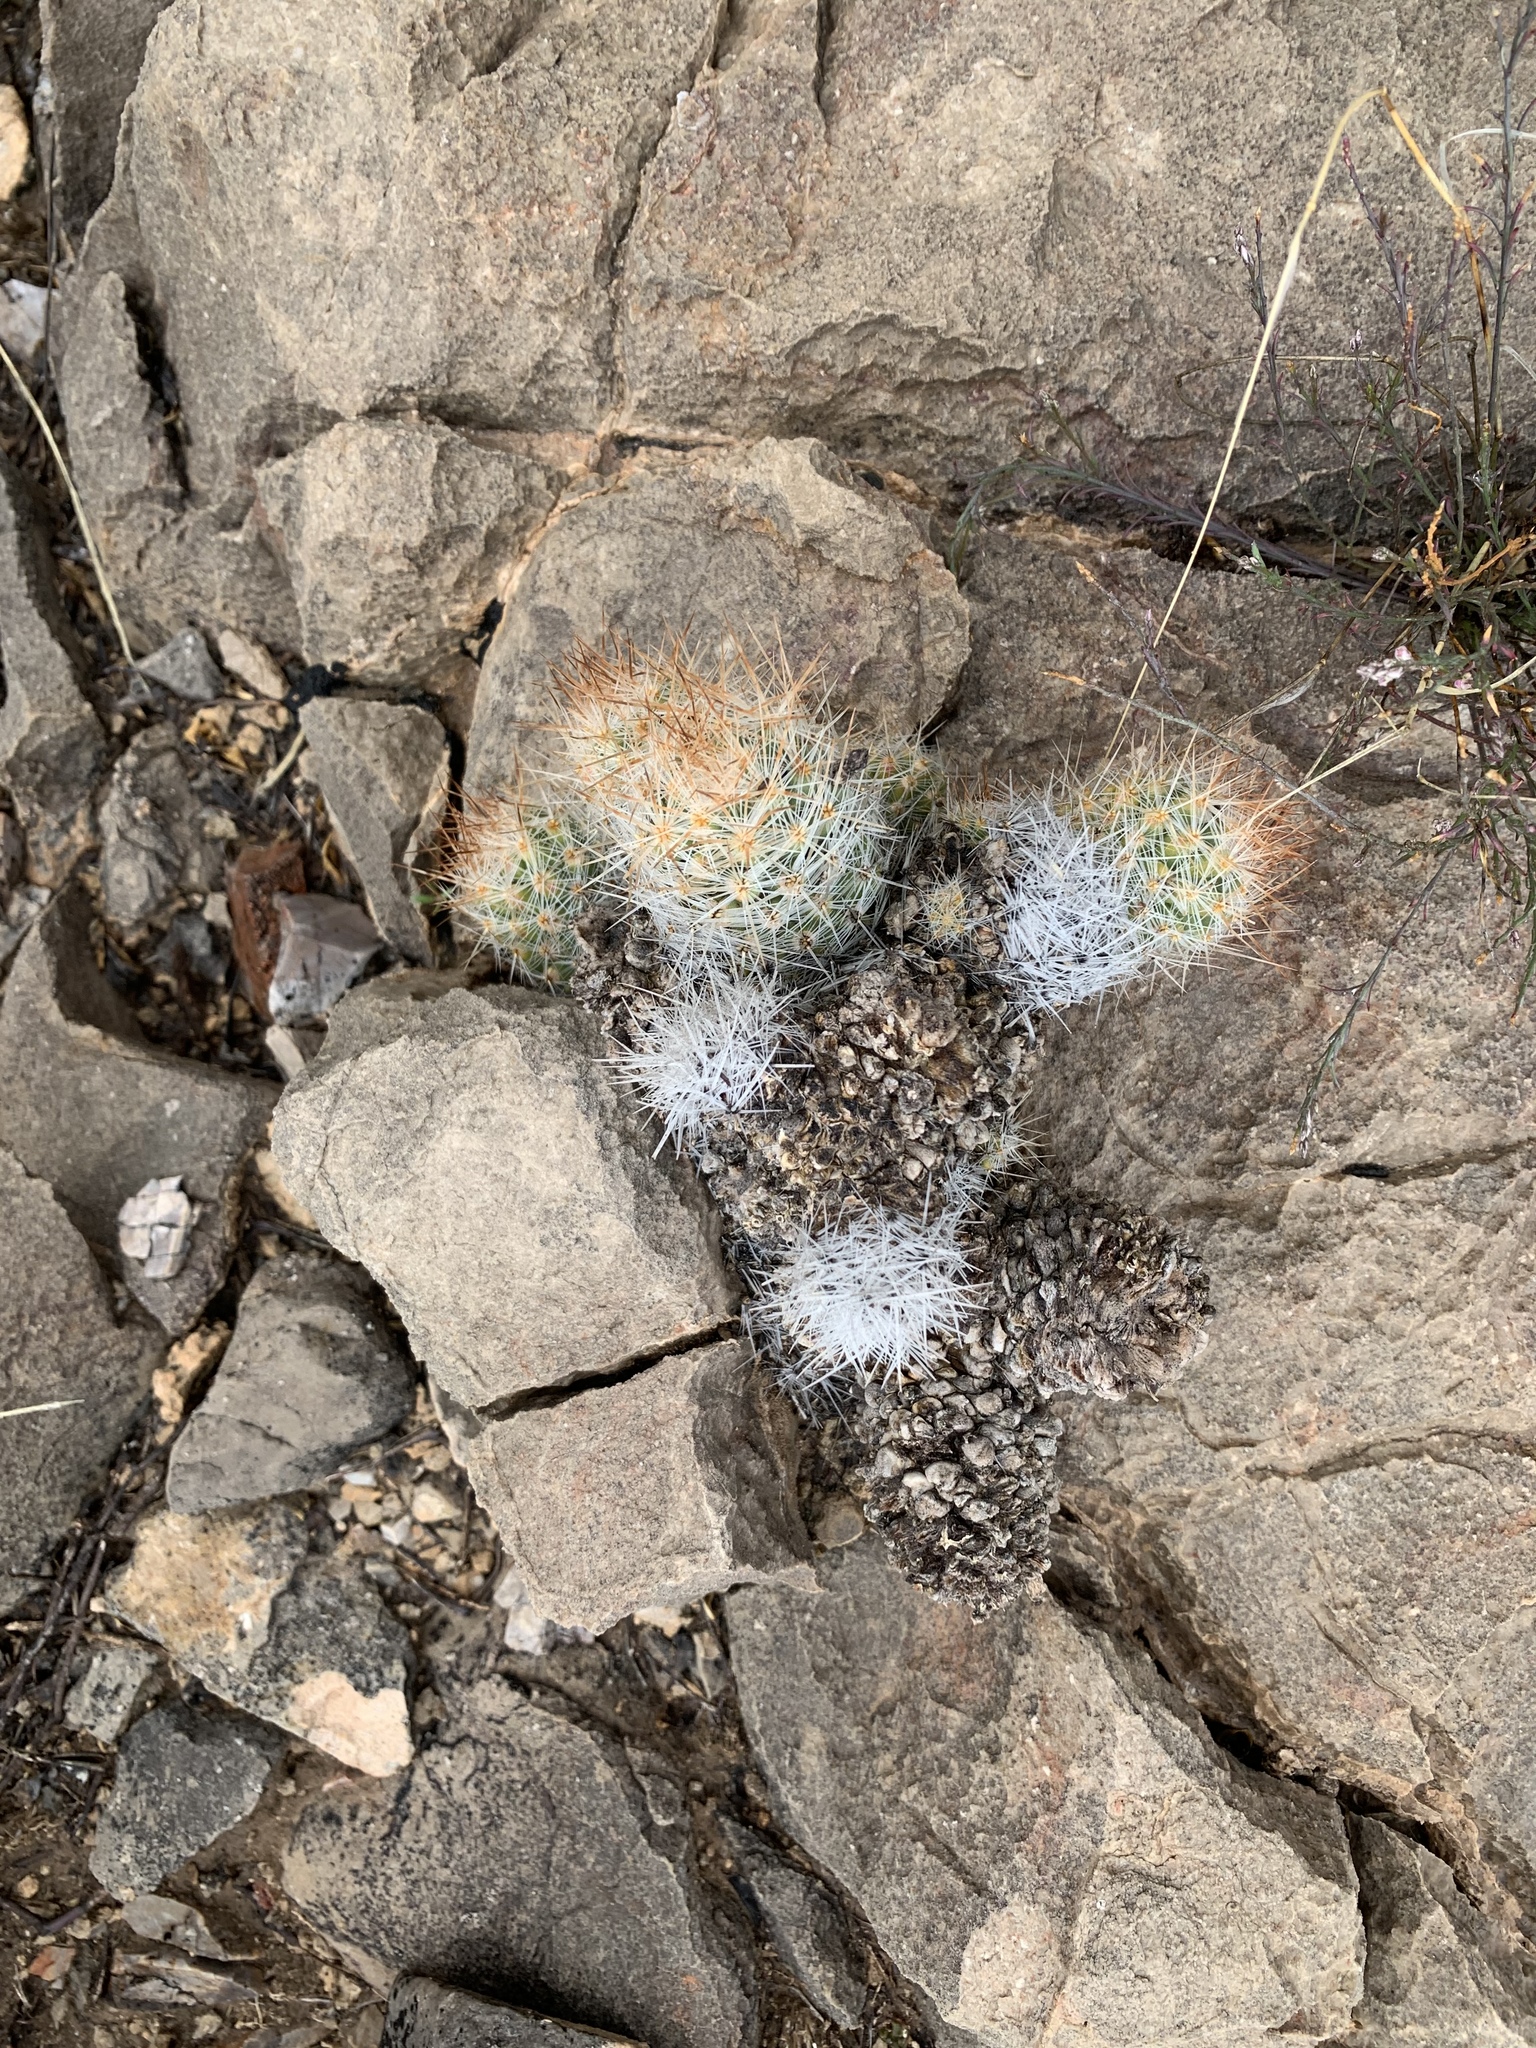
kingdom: Plantae
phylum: Tracheophyta
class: Magnoliopsida
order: Caryophyllales
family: Cactaceae
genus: Pelecyphora
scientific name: Pelecyphora tuberculosa
